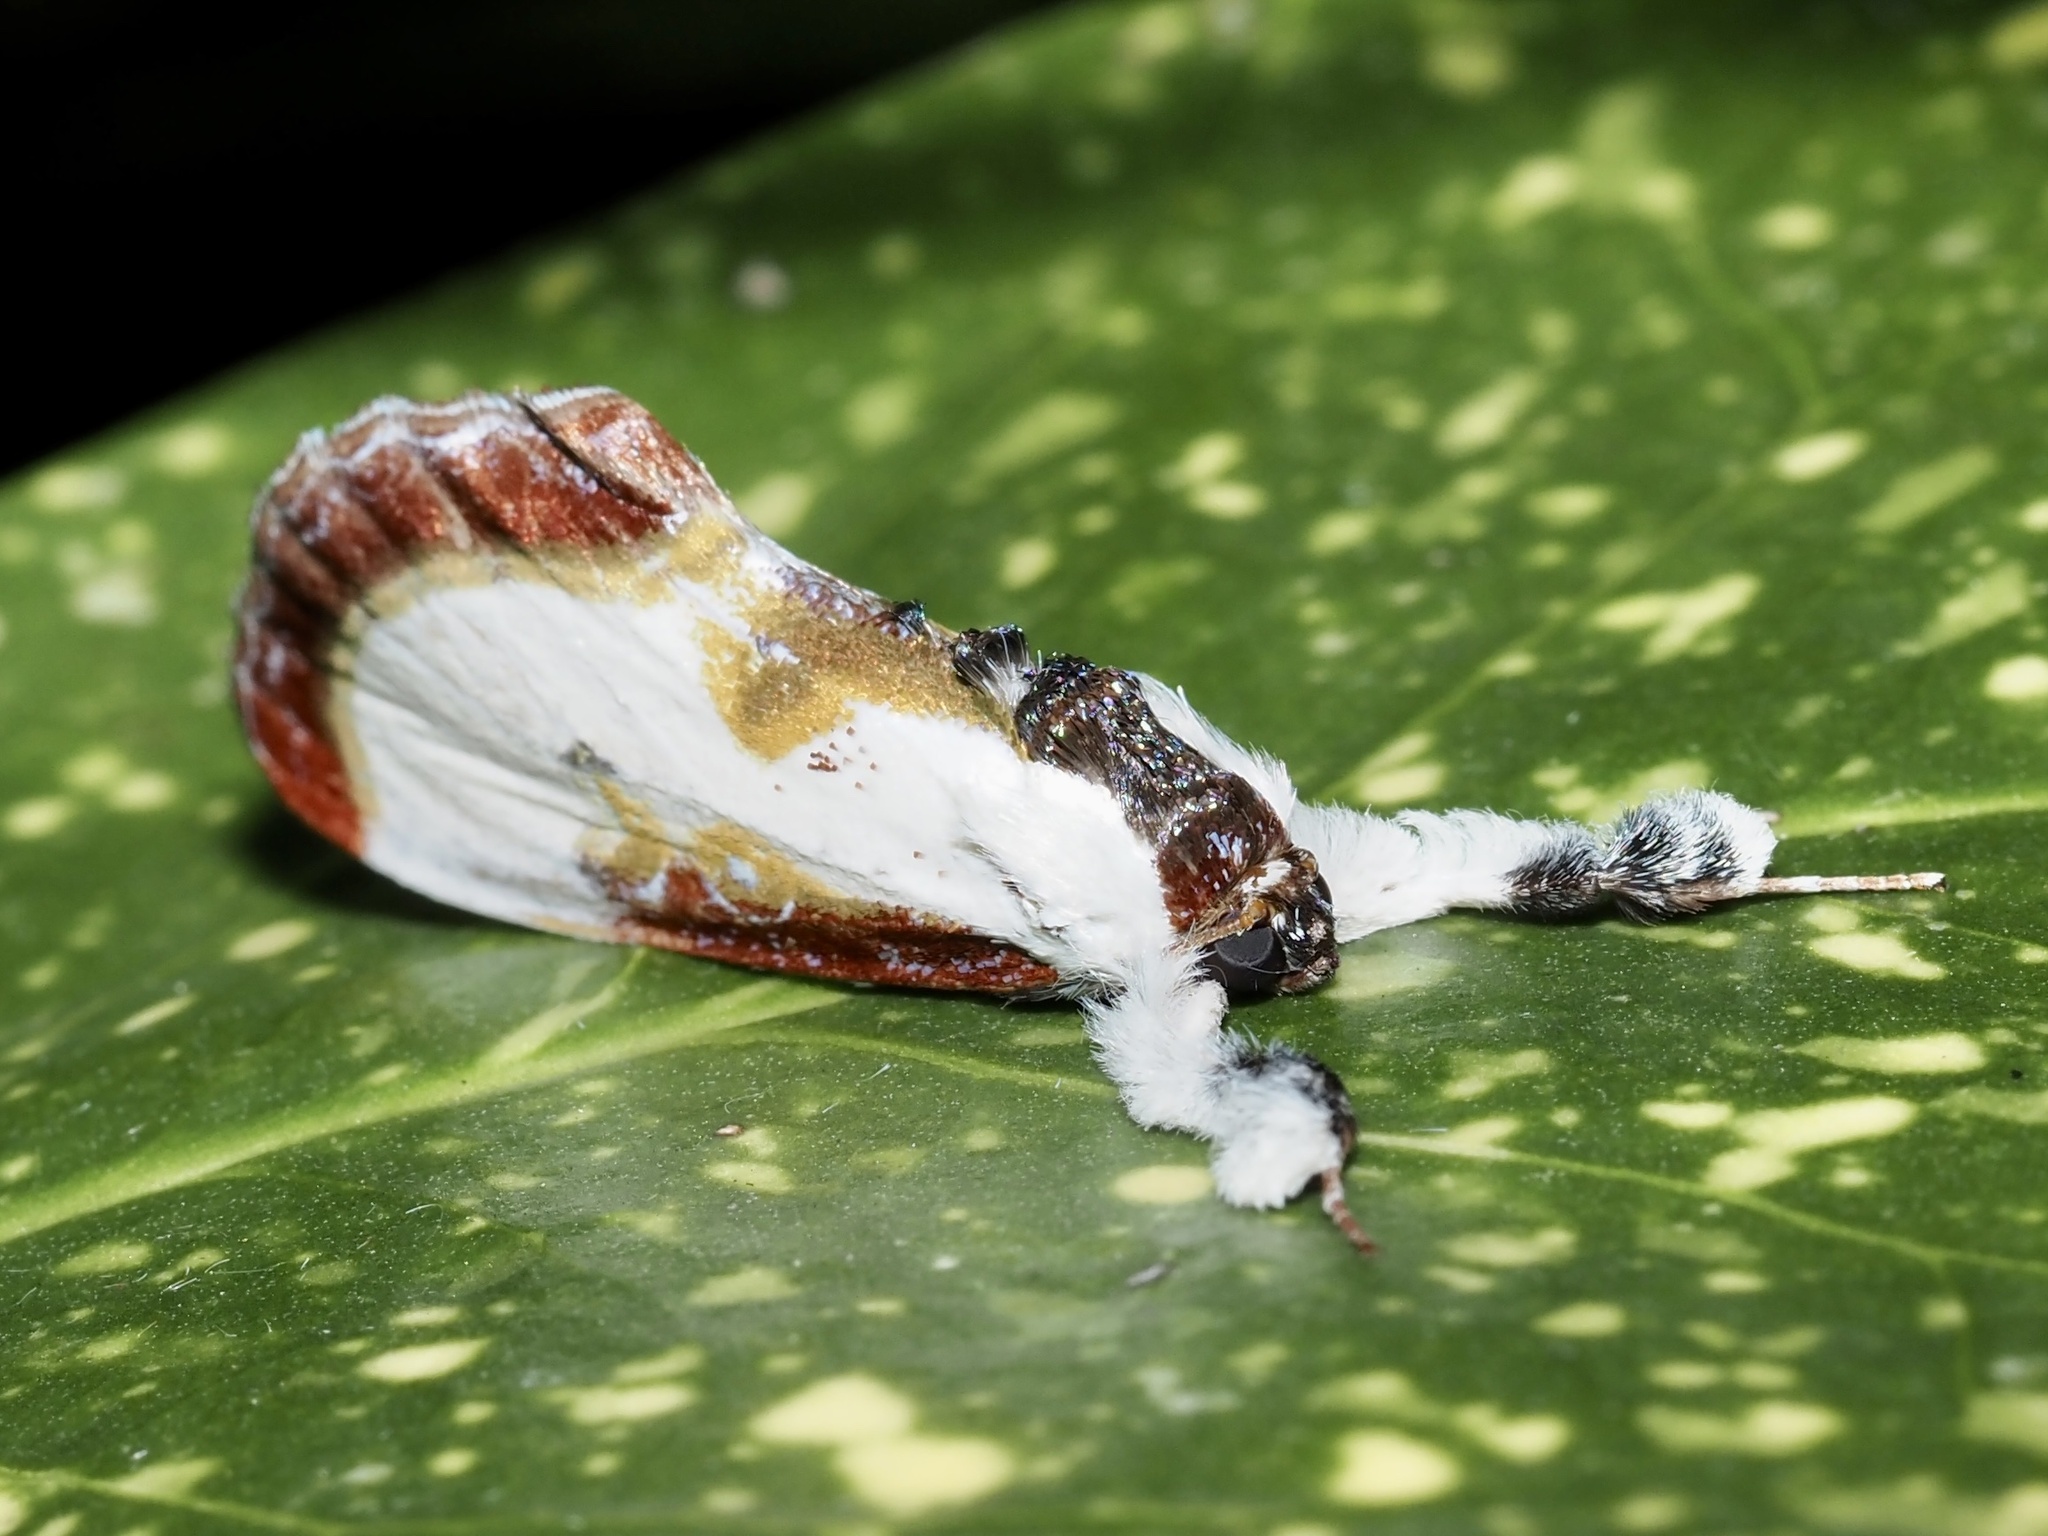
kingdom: Animalia
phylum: Arthropoda
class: Insecta
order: Lepidoptera
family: Noctuidae
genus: Eudryas
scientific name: Eudryas grata
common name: Beautiful wood-nymph
